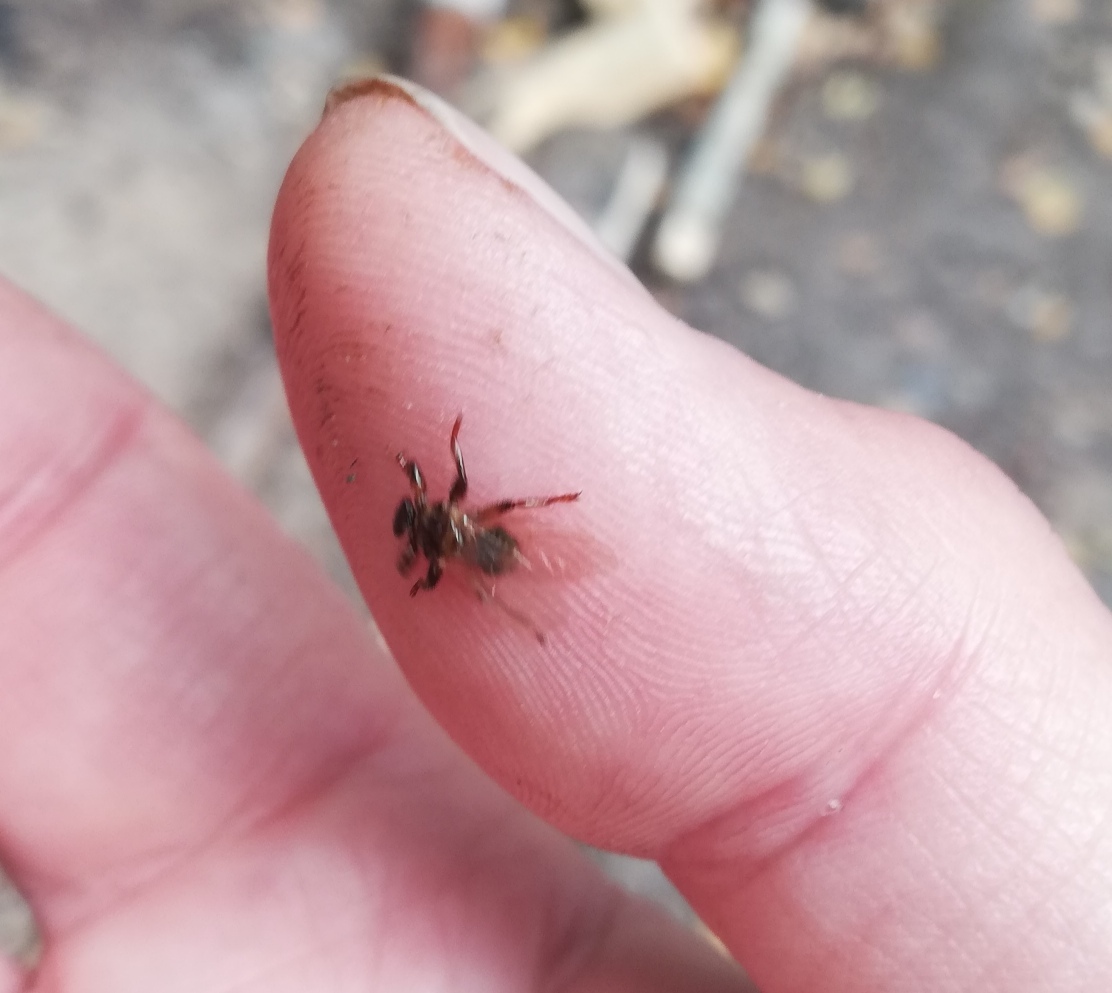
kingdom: Animalia
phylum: Arthropoda
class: Insecta
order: Diptera
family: Hippoboscidae
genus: Lipoptena
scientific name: Lipoptena cervi
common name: Deer ked
